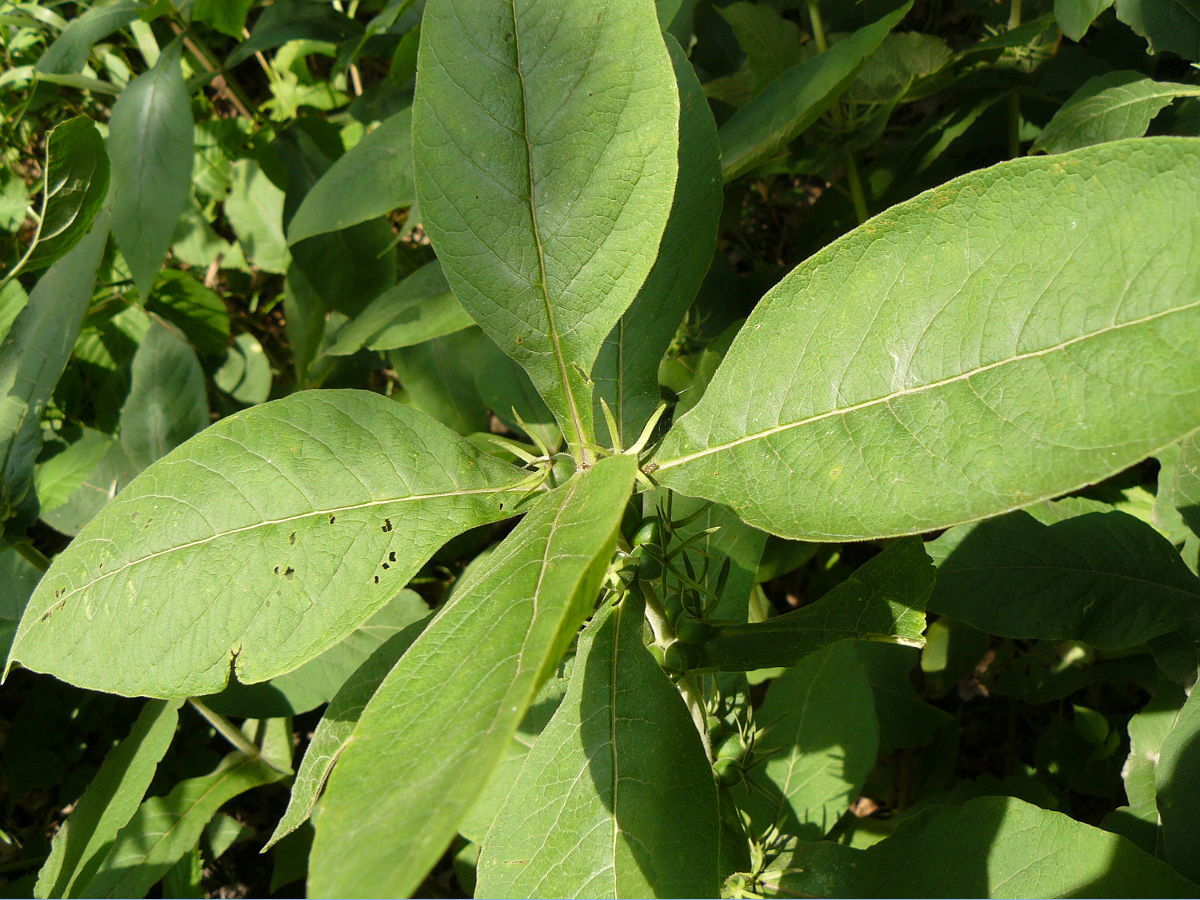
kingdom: Plantae
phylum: Tracheophyta
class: Magnoliopsida
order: Dipsacales
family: Caprifoliaceae
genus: Triosteum
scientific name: Triosteum aurantiacum
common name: Coffee tinker's-weed
